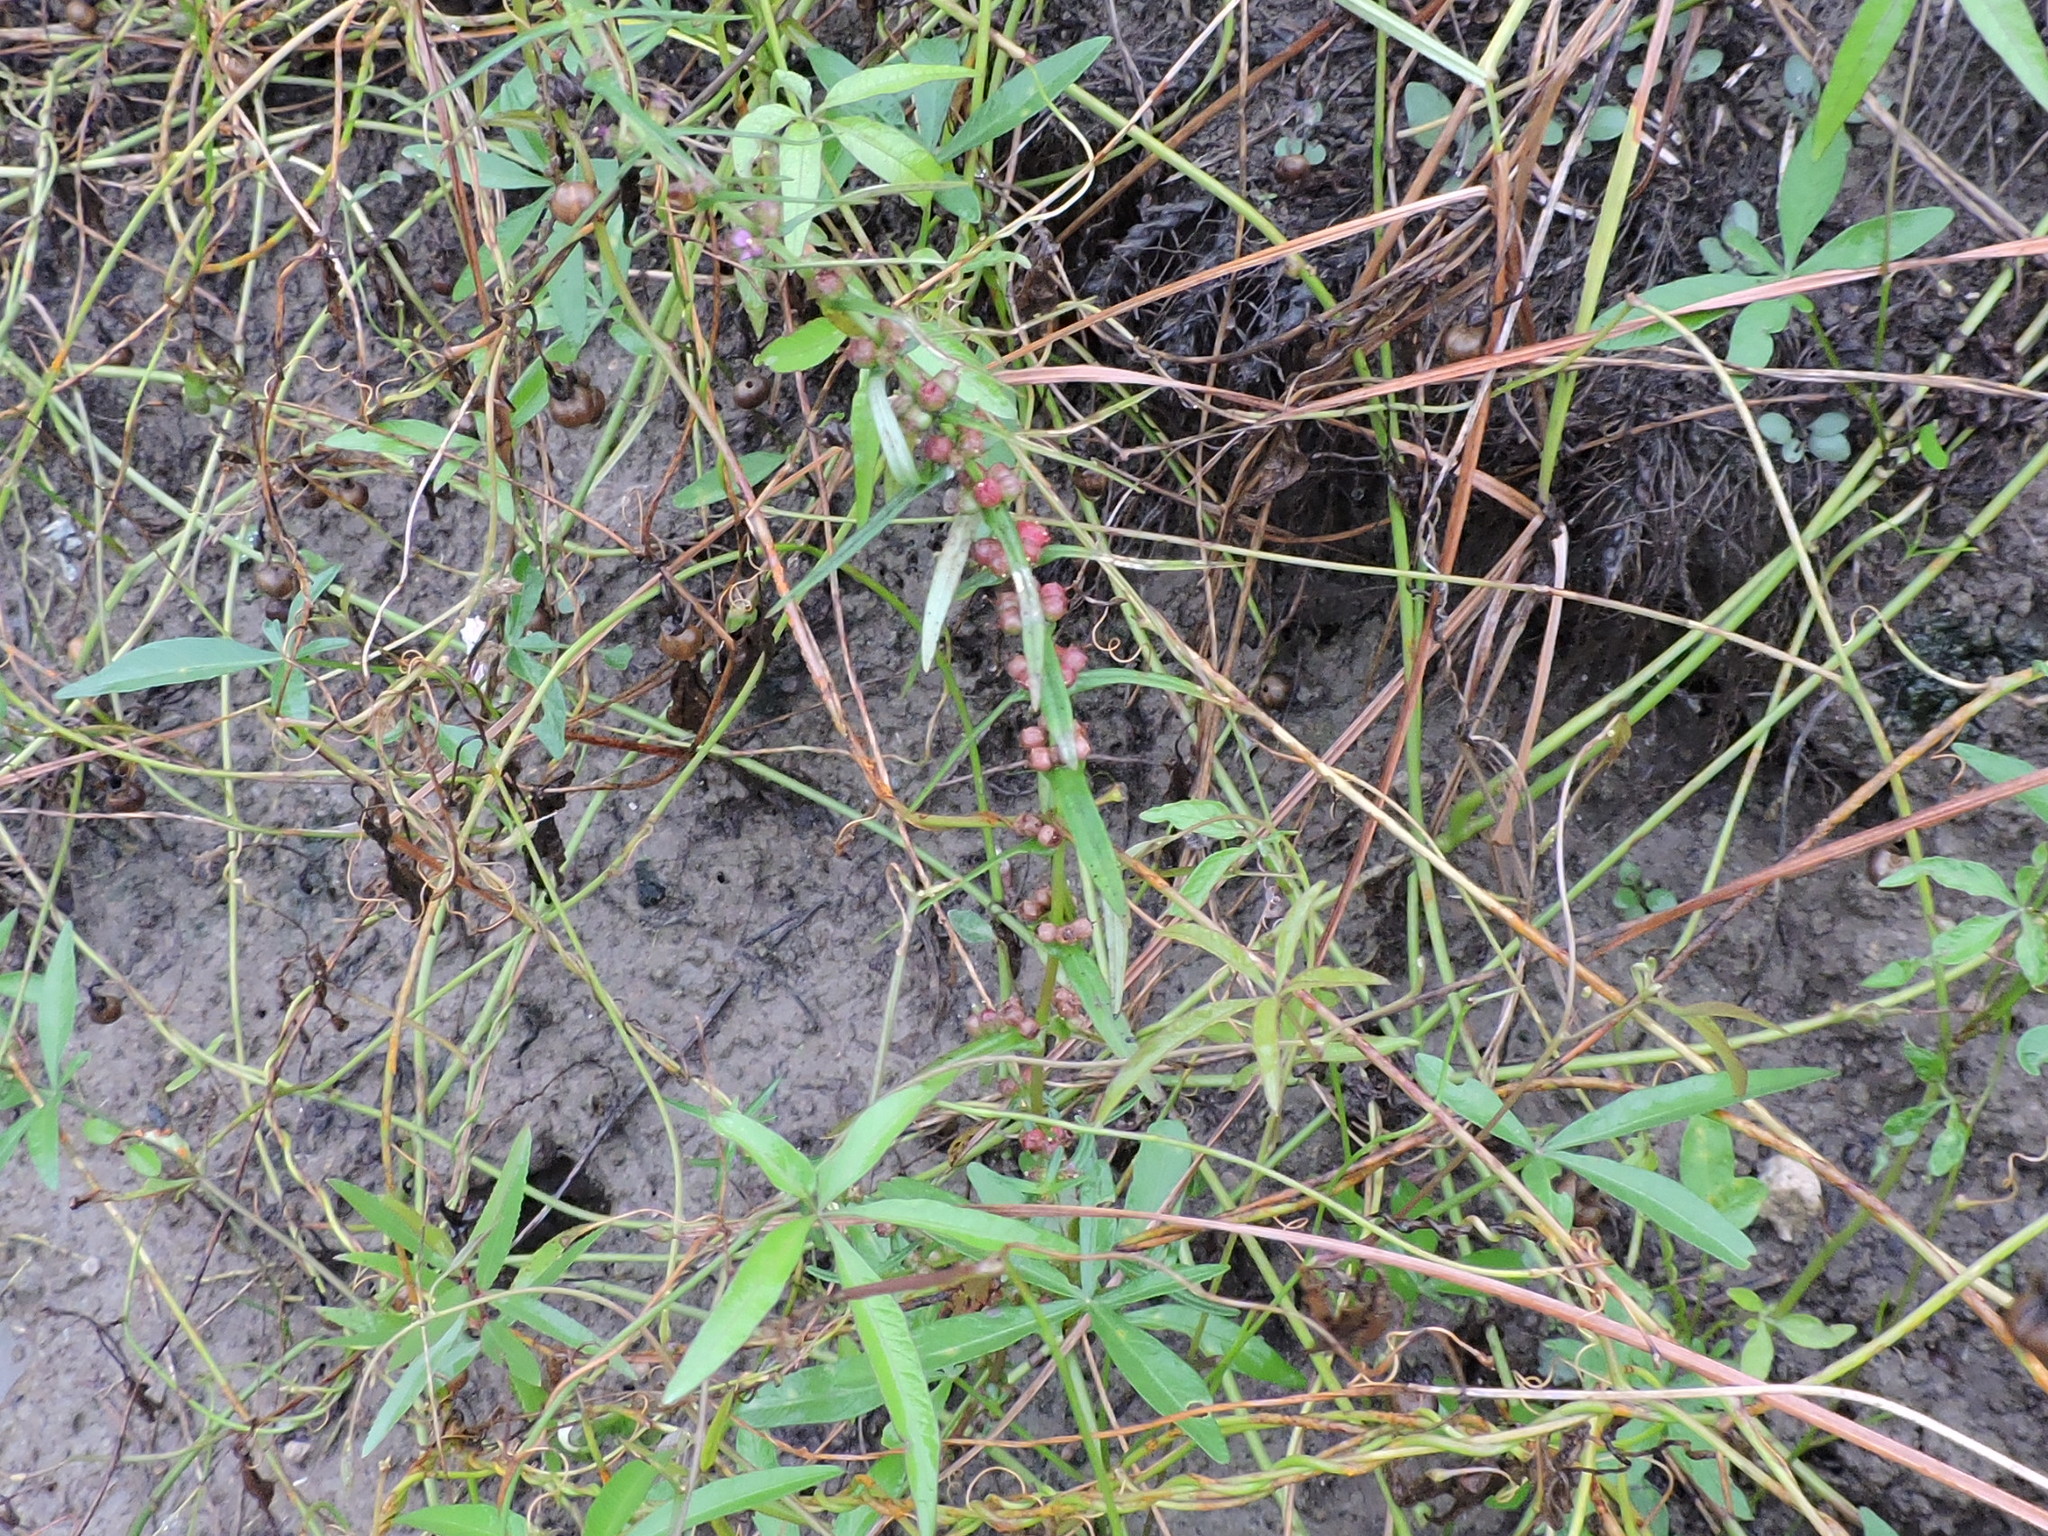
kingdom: Plantae
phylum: Tracheophyta
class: Magnoliopsida
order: Myrtales
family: Lythraceae
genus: Ammannia
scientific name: Ammannia coccinea
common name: Valley redstem
